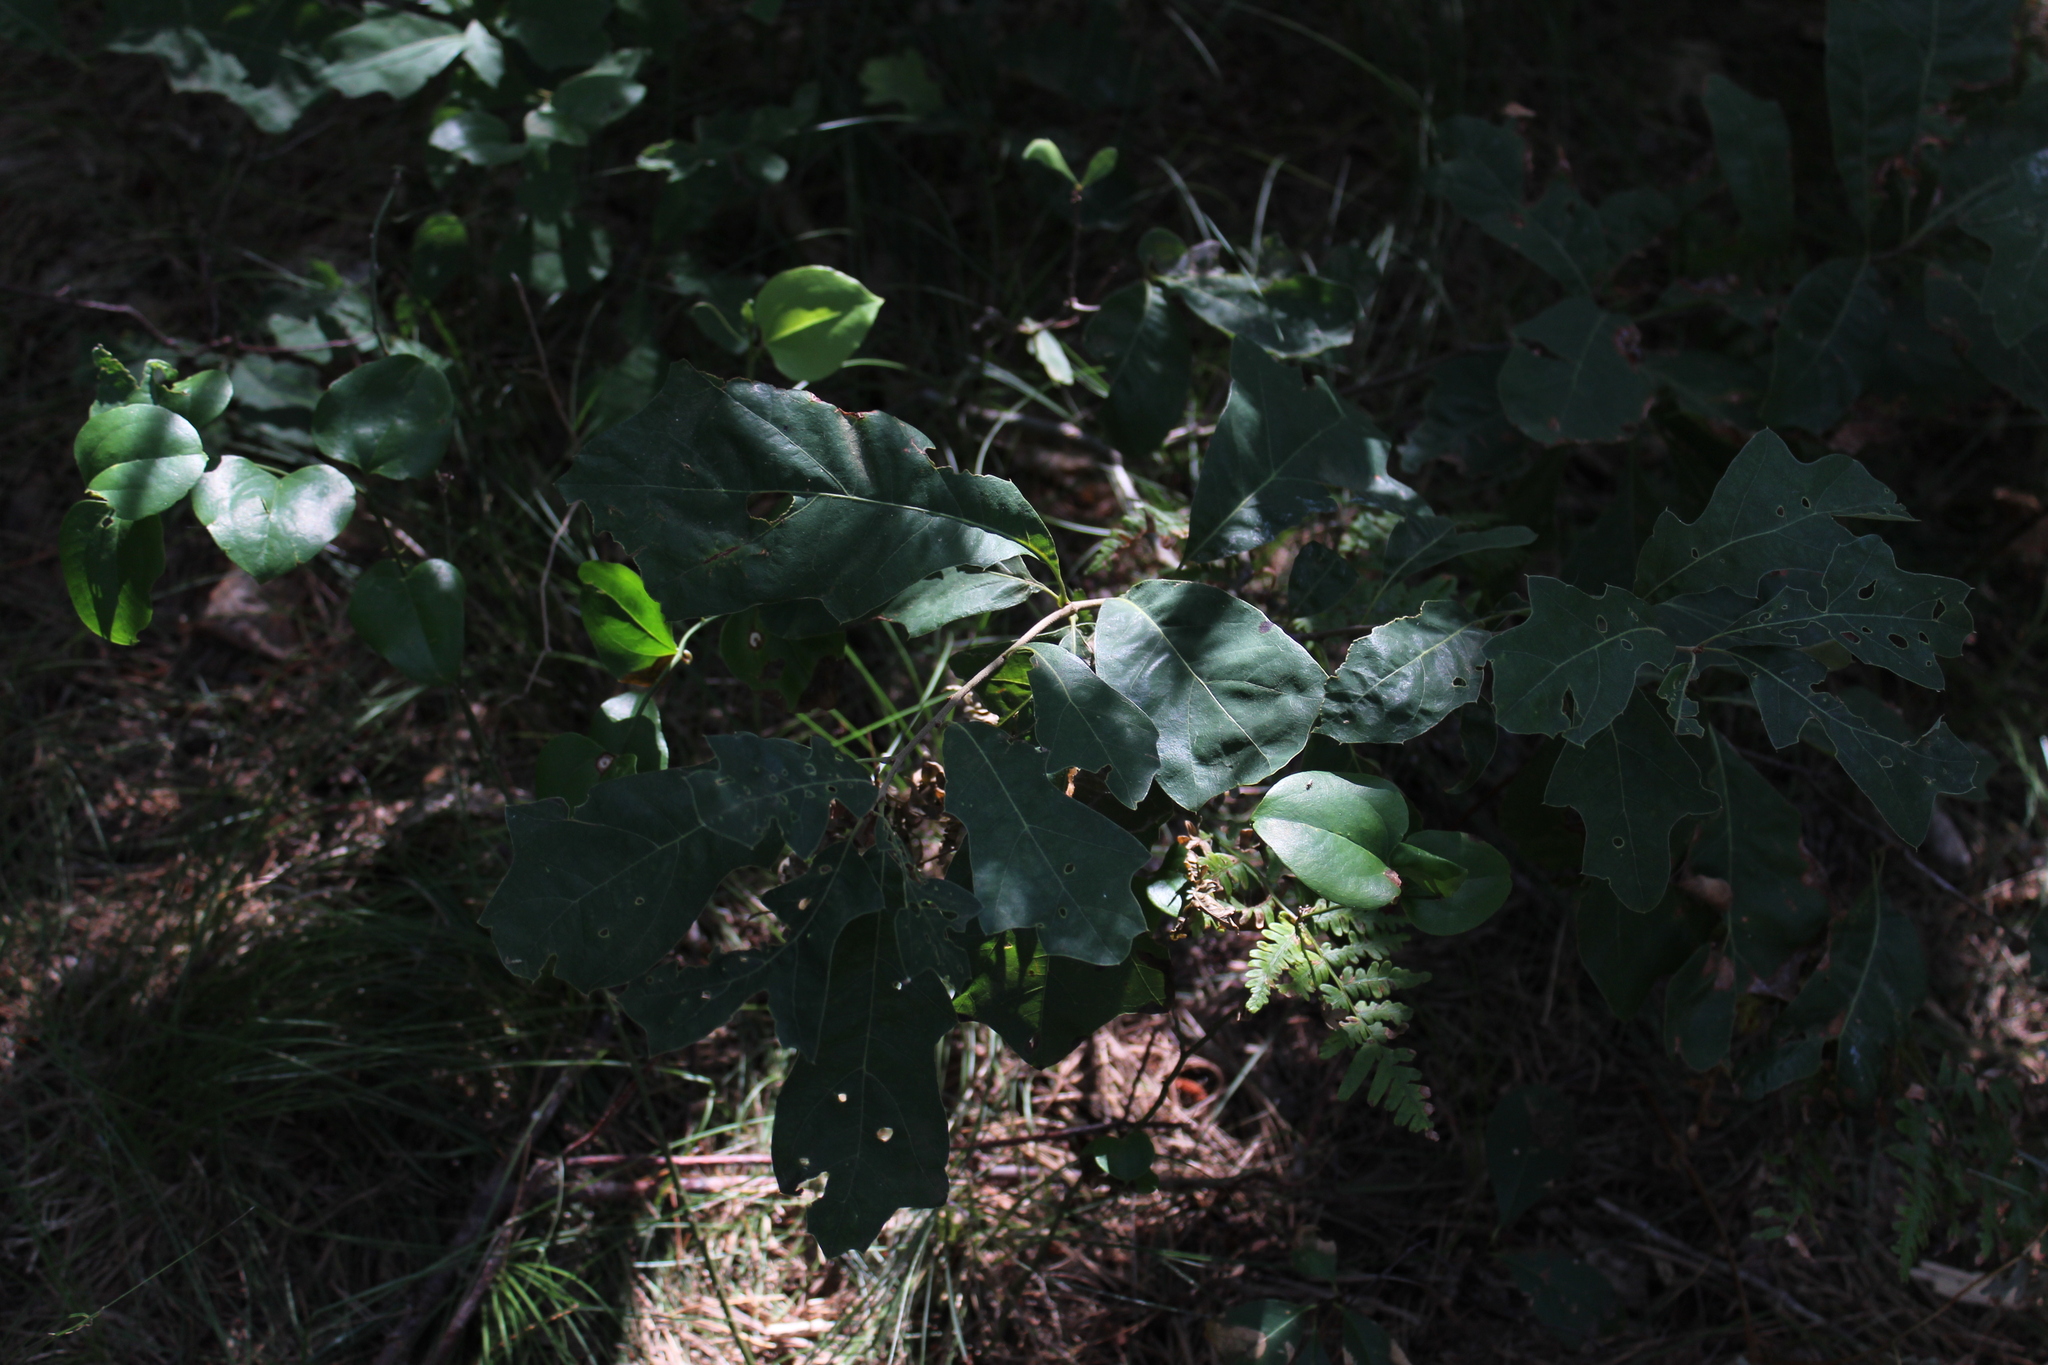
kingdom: Plantae
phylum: Tracheophyta
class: Magnoliopsida
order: Fagales
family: Fagaceae
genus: Quercus
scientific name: Quercus ilicifolia
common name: Bear oak
